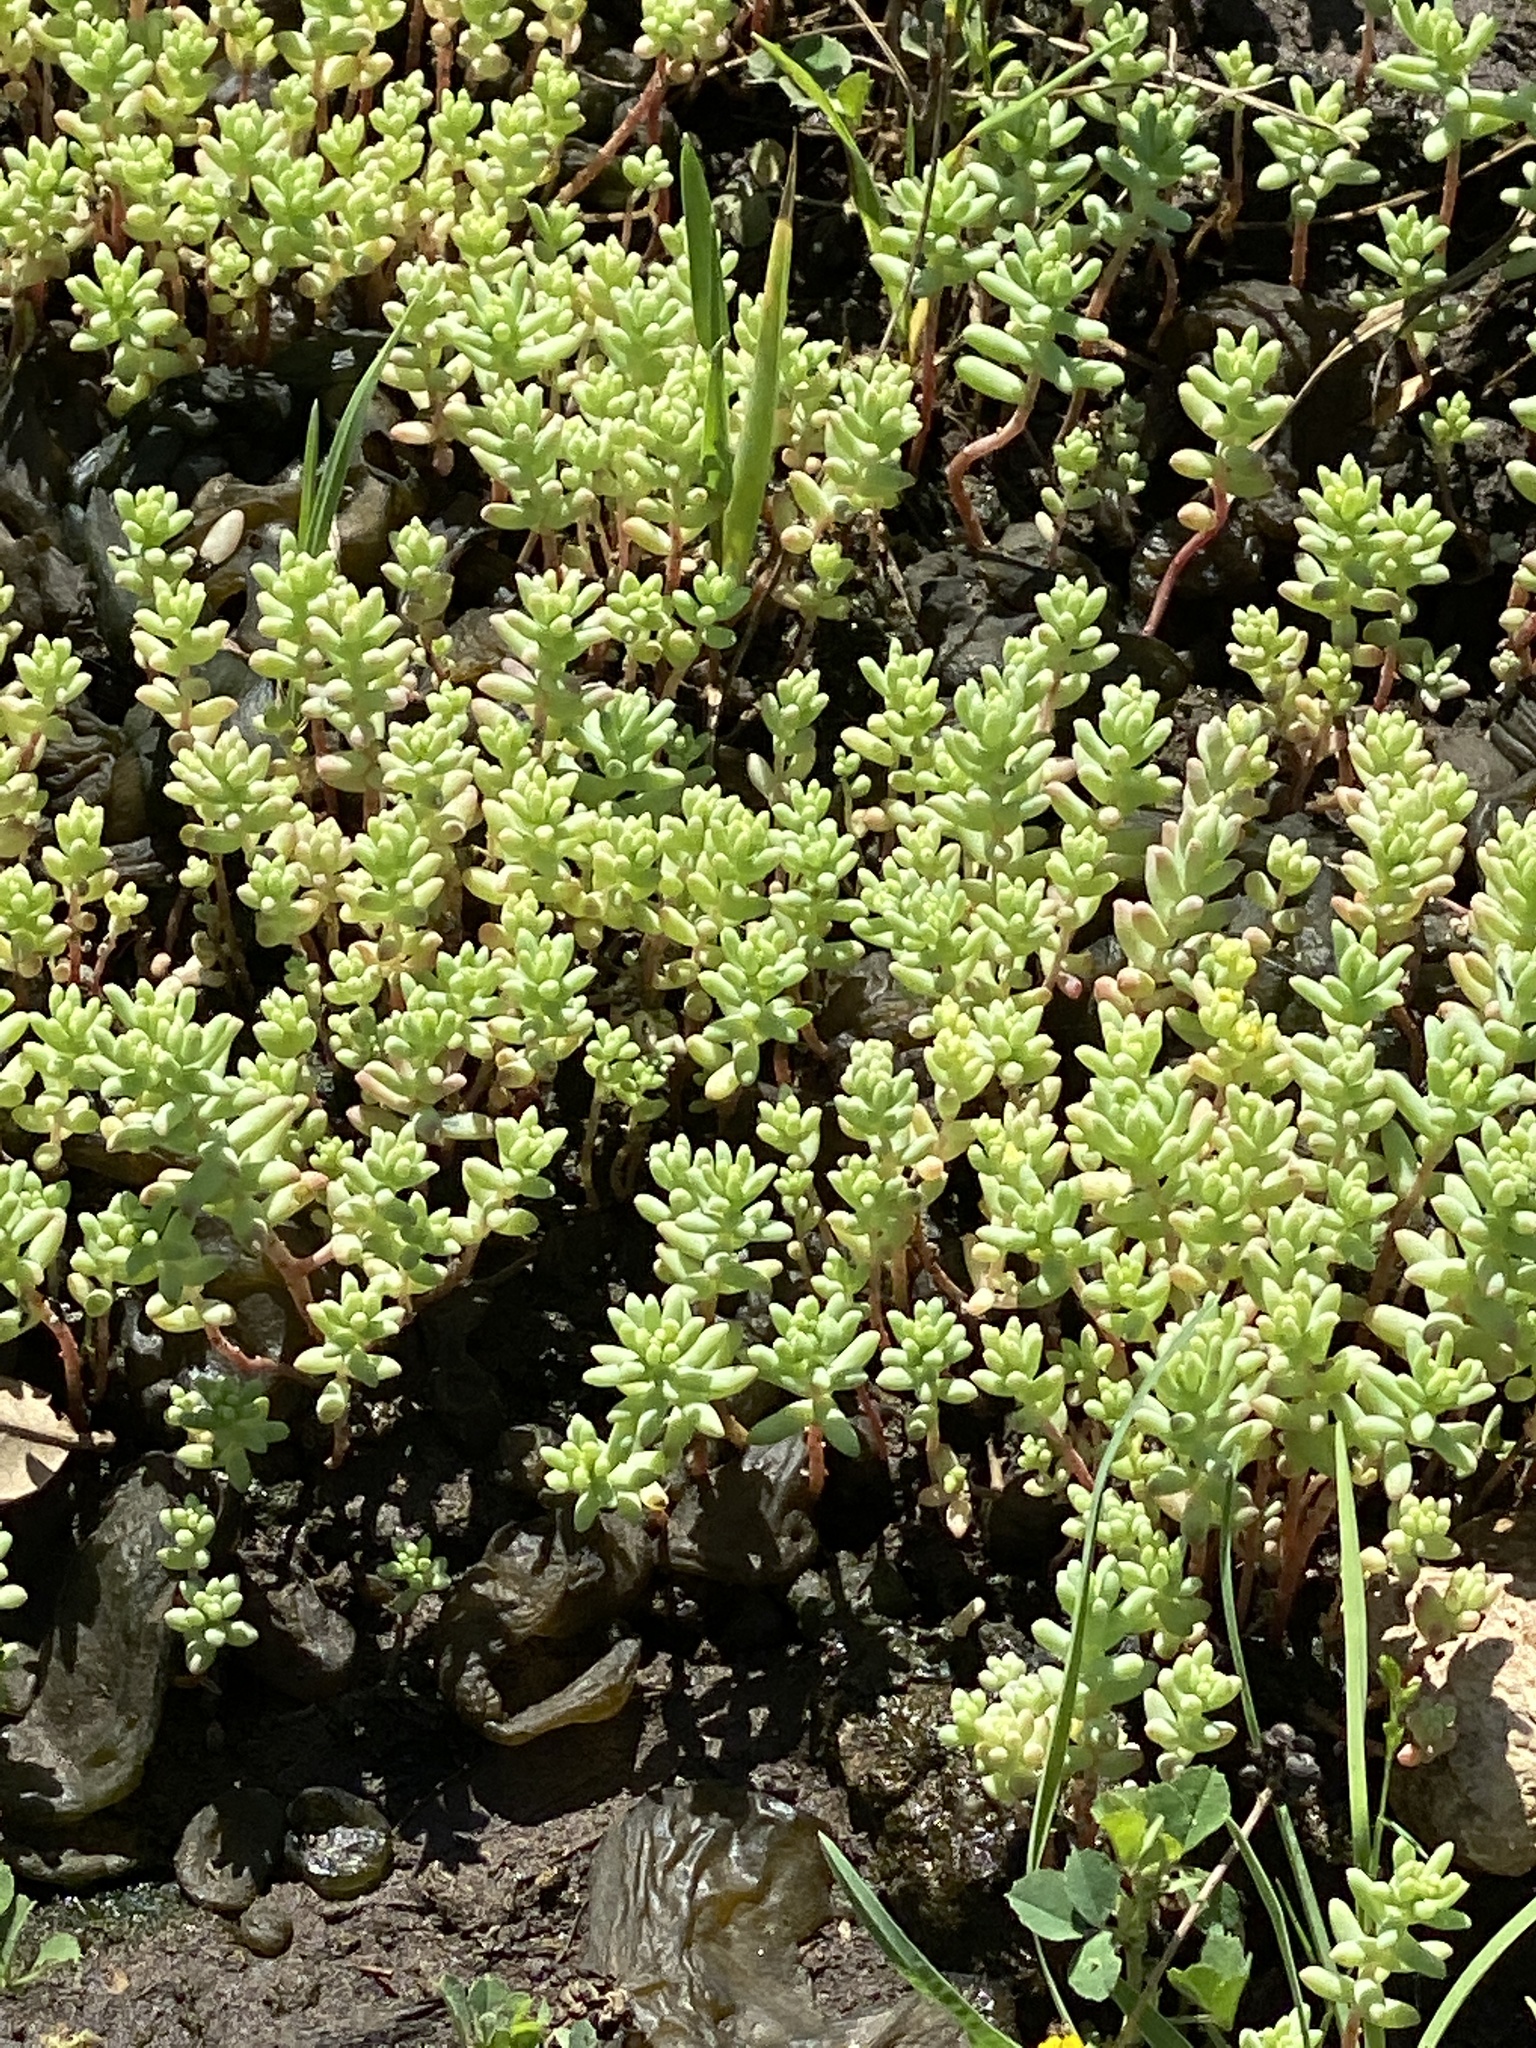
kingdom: Plantae
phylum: Tracheophyta
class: Magnoliopsida
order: Saxifragales
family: Crassulaceae
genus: Sedum
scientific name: Sedum nuttallii
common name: Yellow stonecrop
